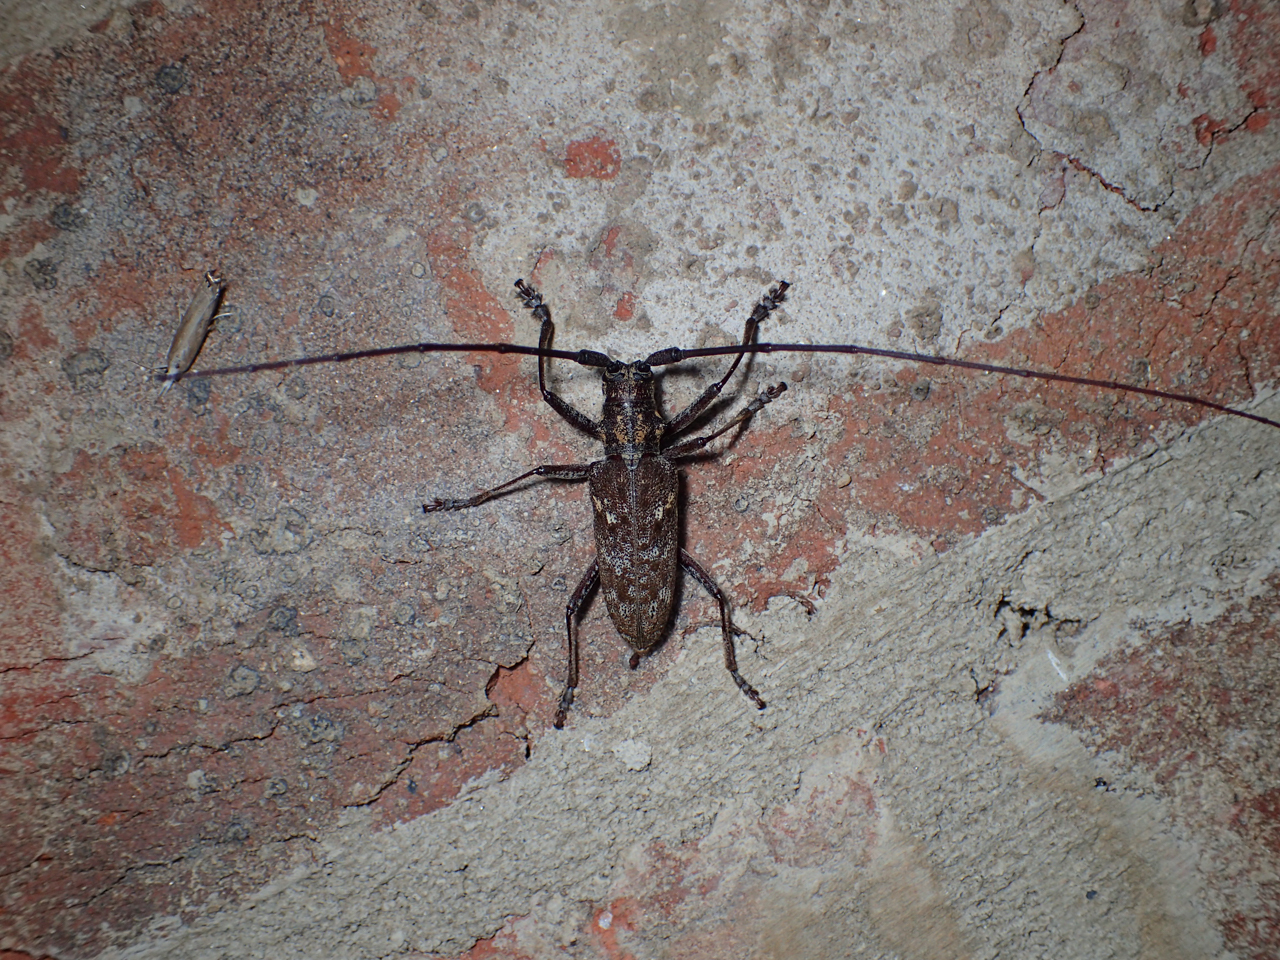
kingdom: Animalia
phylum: Arthropoda
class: Insecta
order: Coleoptera
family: Cerambycidae
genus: Monochamus
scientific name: Monochamus carolinensis
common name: Carolina pine sawyer
